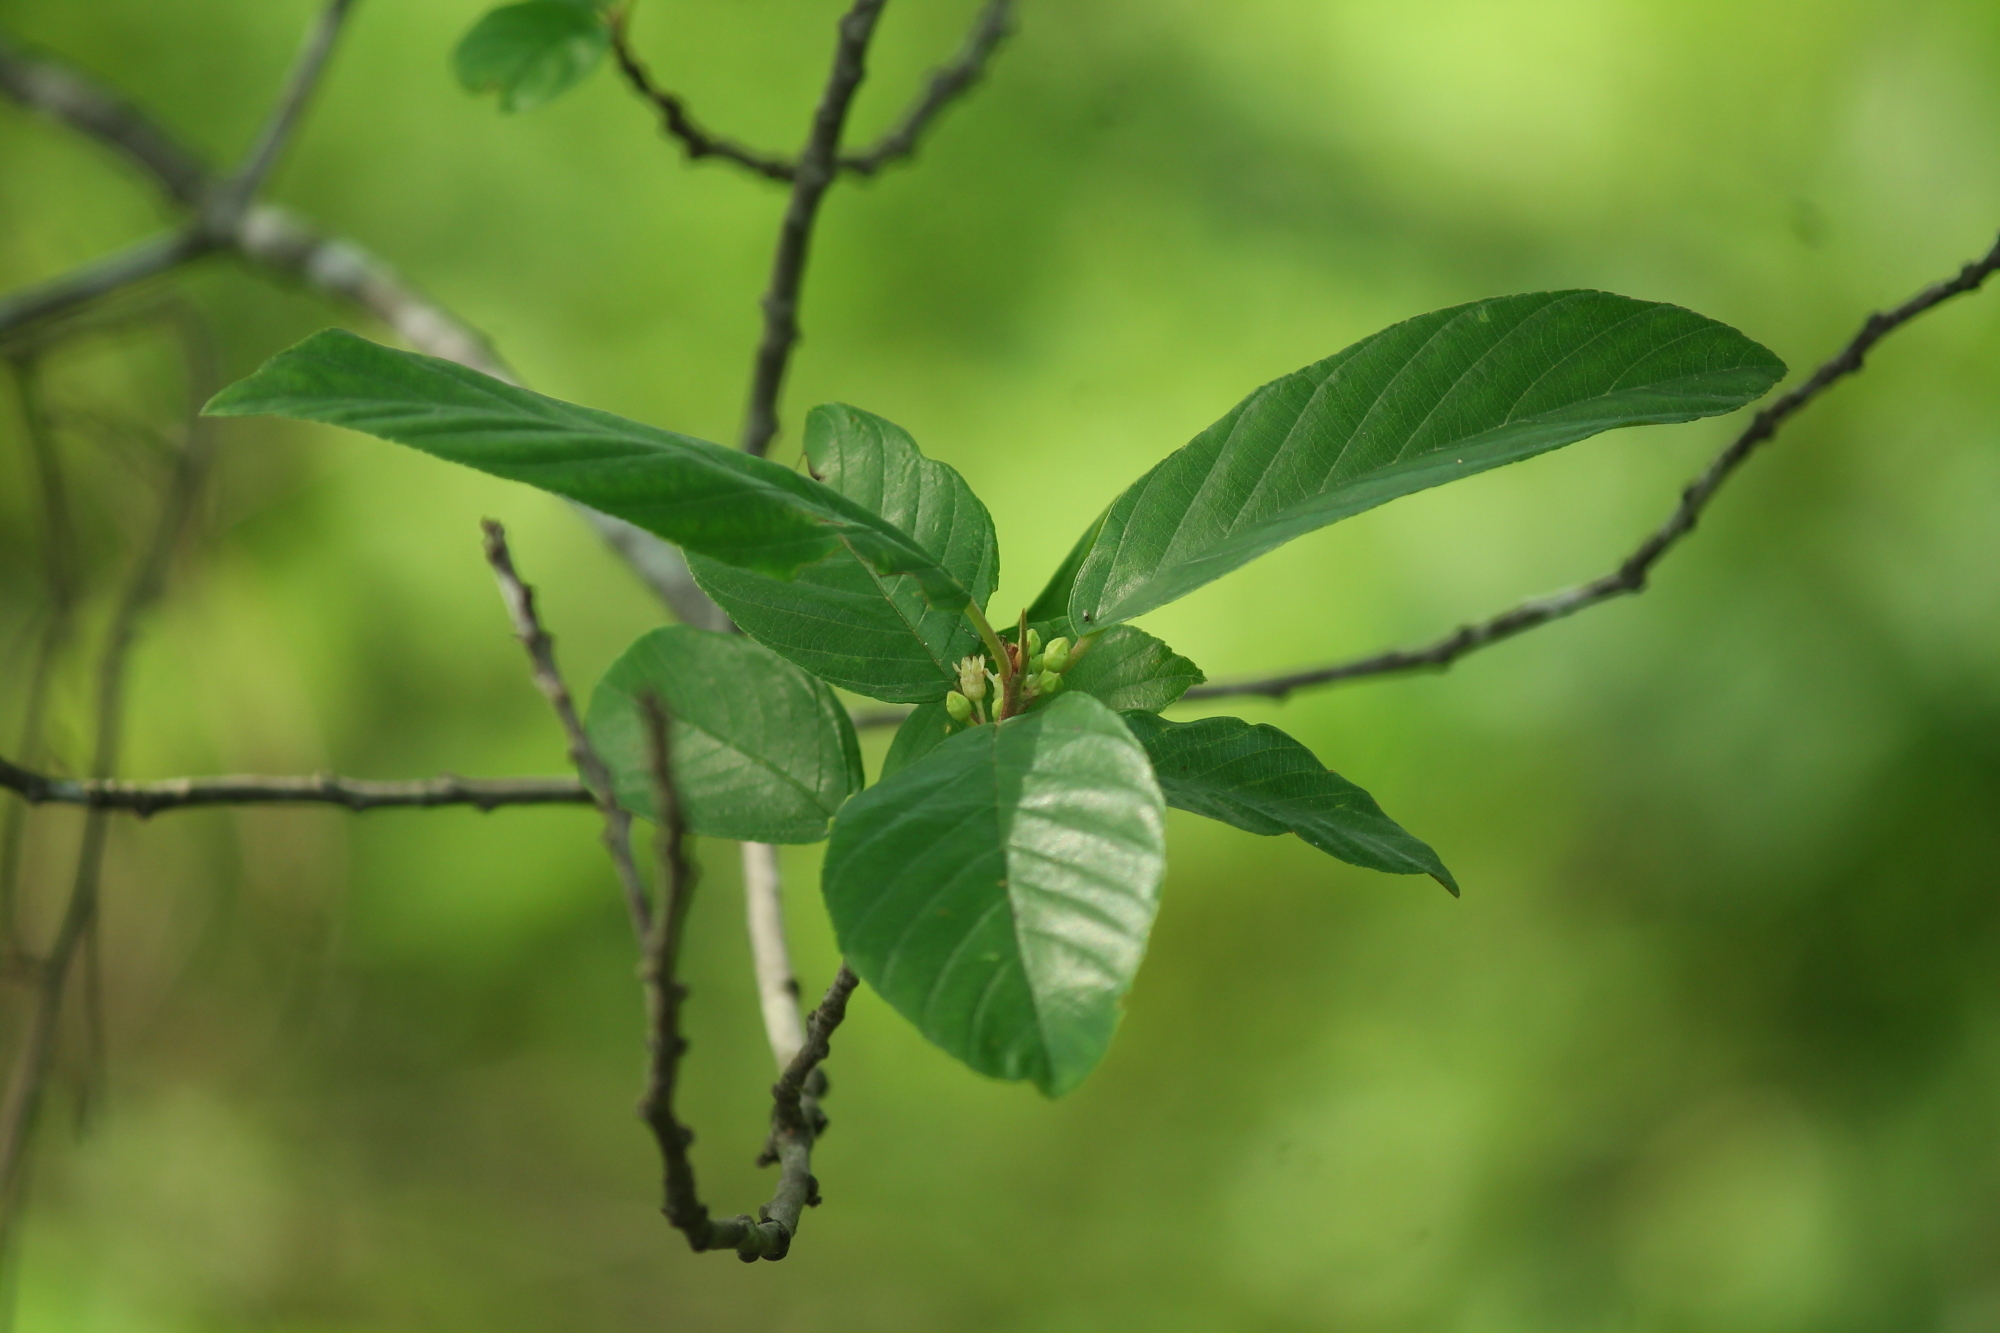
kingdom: Plantae
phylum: Tracheophyta
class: Magnoliopsida
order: Rosales
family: Rhamnaceae
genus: Frangula
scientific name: Frangula caroliniana
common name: Carolina buckthorn
